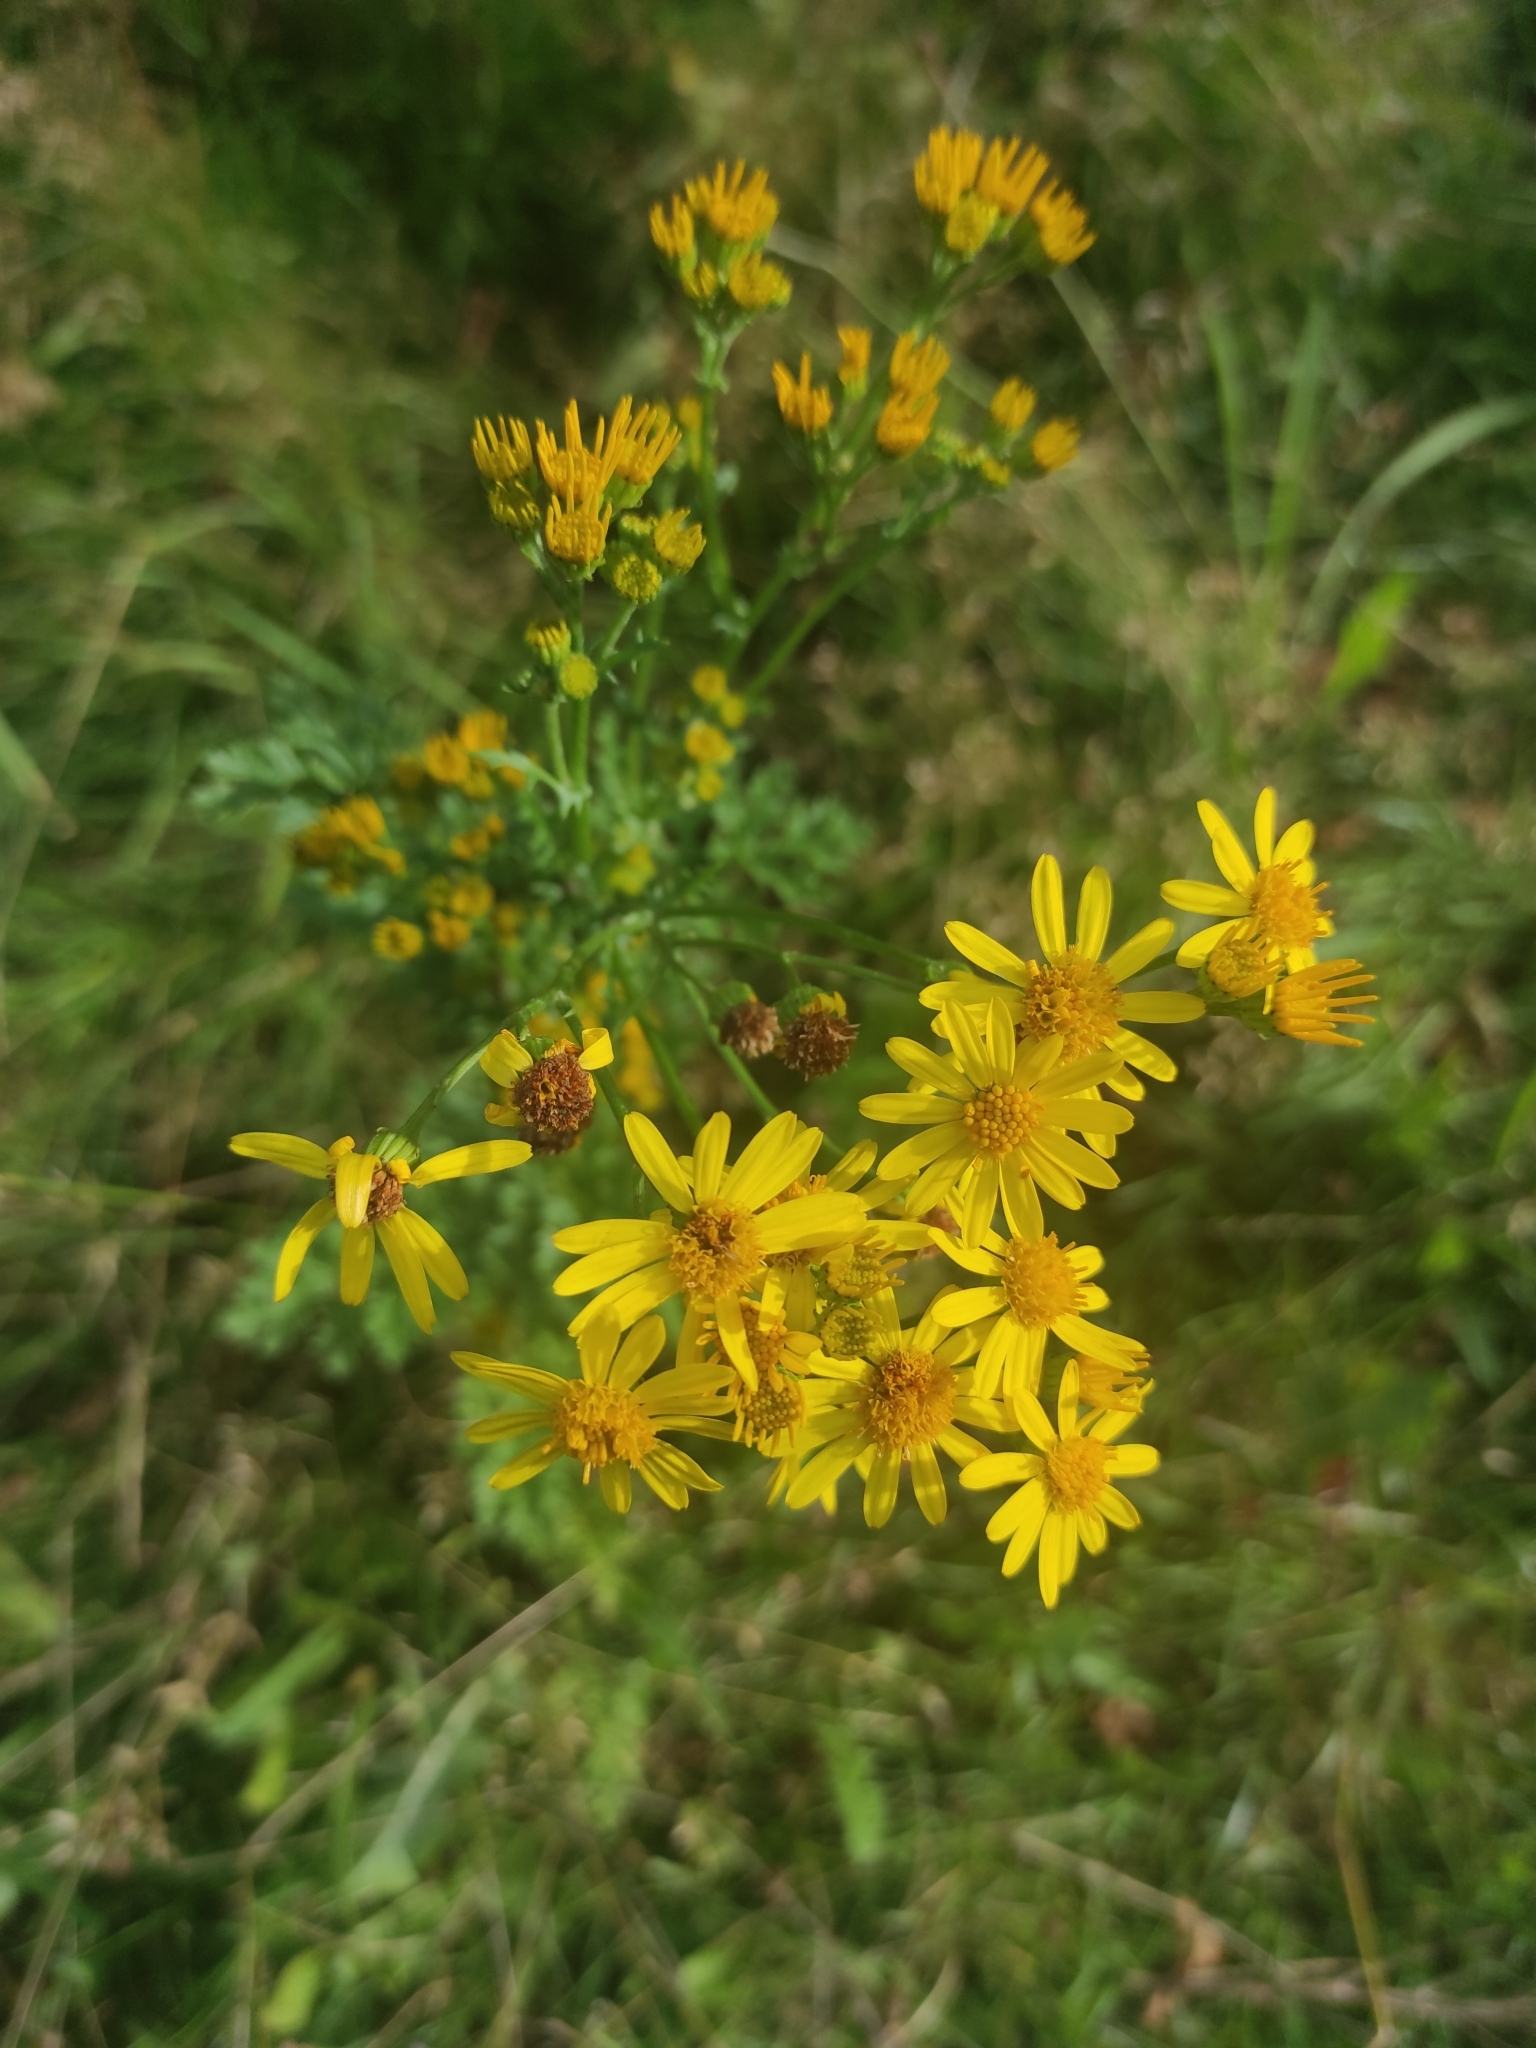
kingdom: Plantae
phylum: Tracheophyta
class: Magnoliopsida
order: Asterales
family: Asteraceae
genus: Jacobaea
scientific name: Jacobaea vulgaris
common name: Stinking willie
